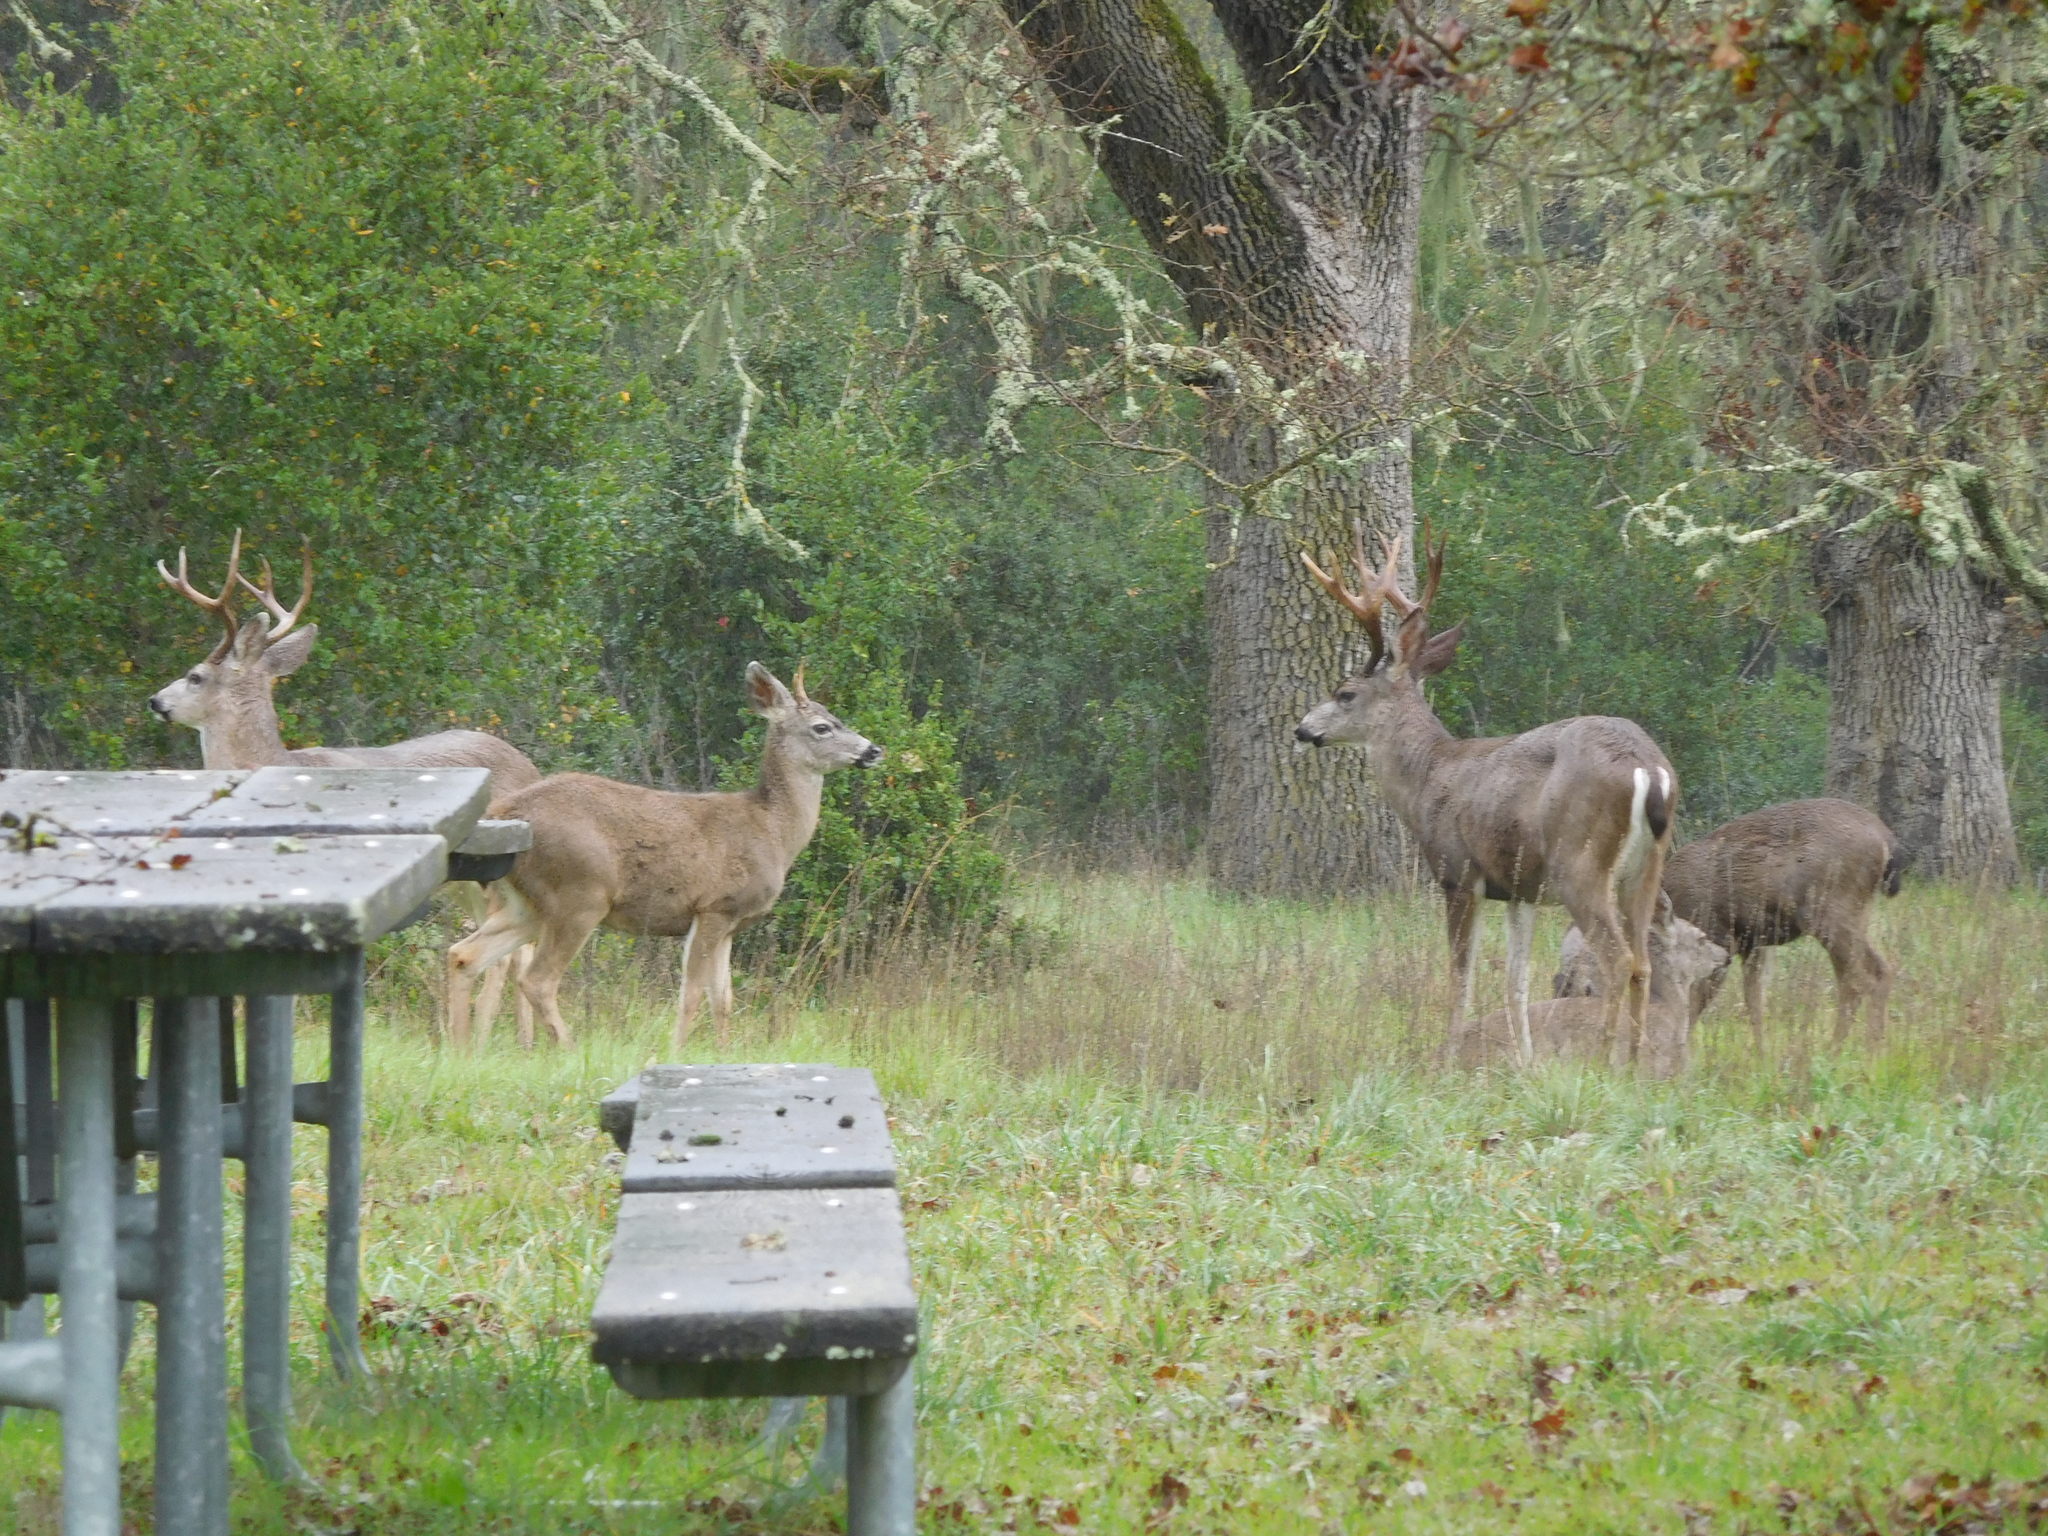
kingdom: Animalia
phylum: Chordata
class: Mammalia
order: Artiodactyla
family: Cervidae
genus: Odocoileus
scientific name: Odocoileus hemionus
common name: Mule deer
